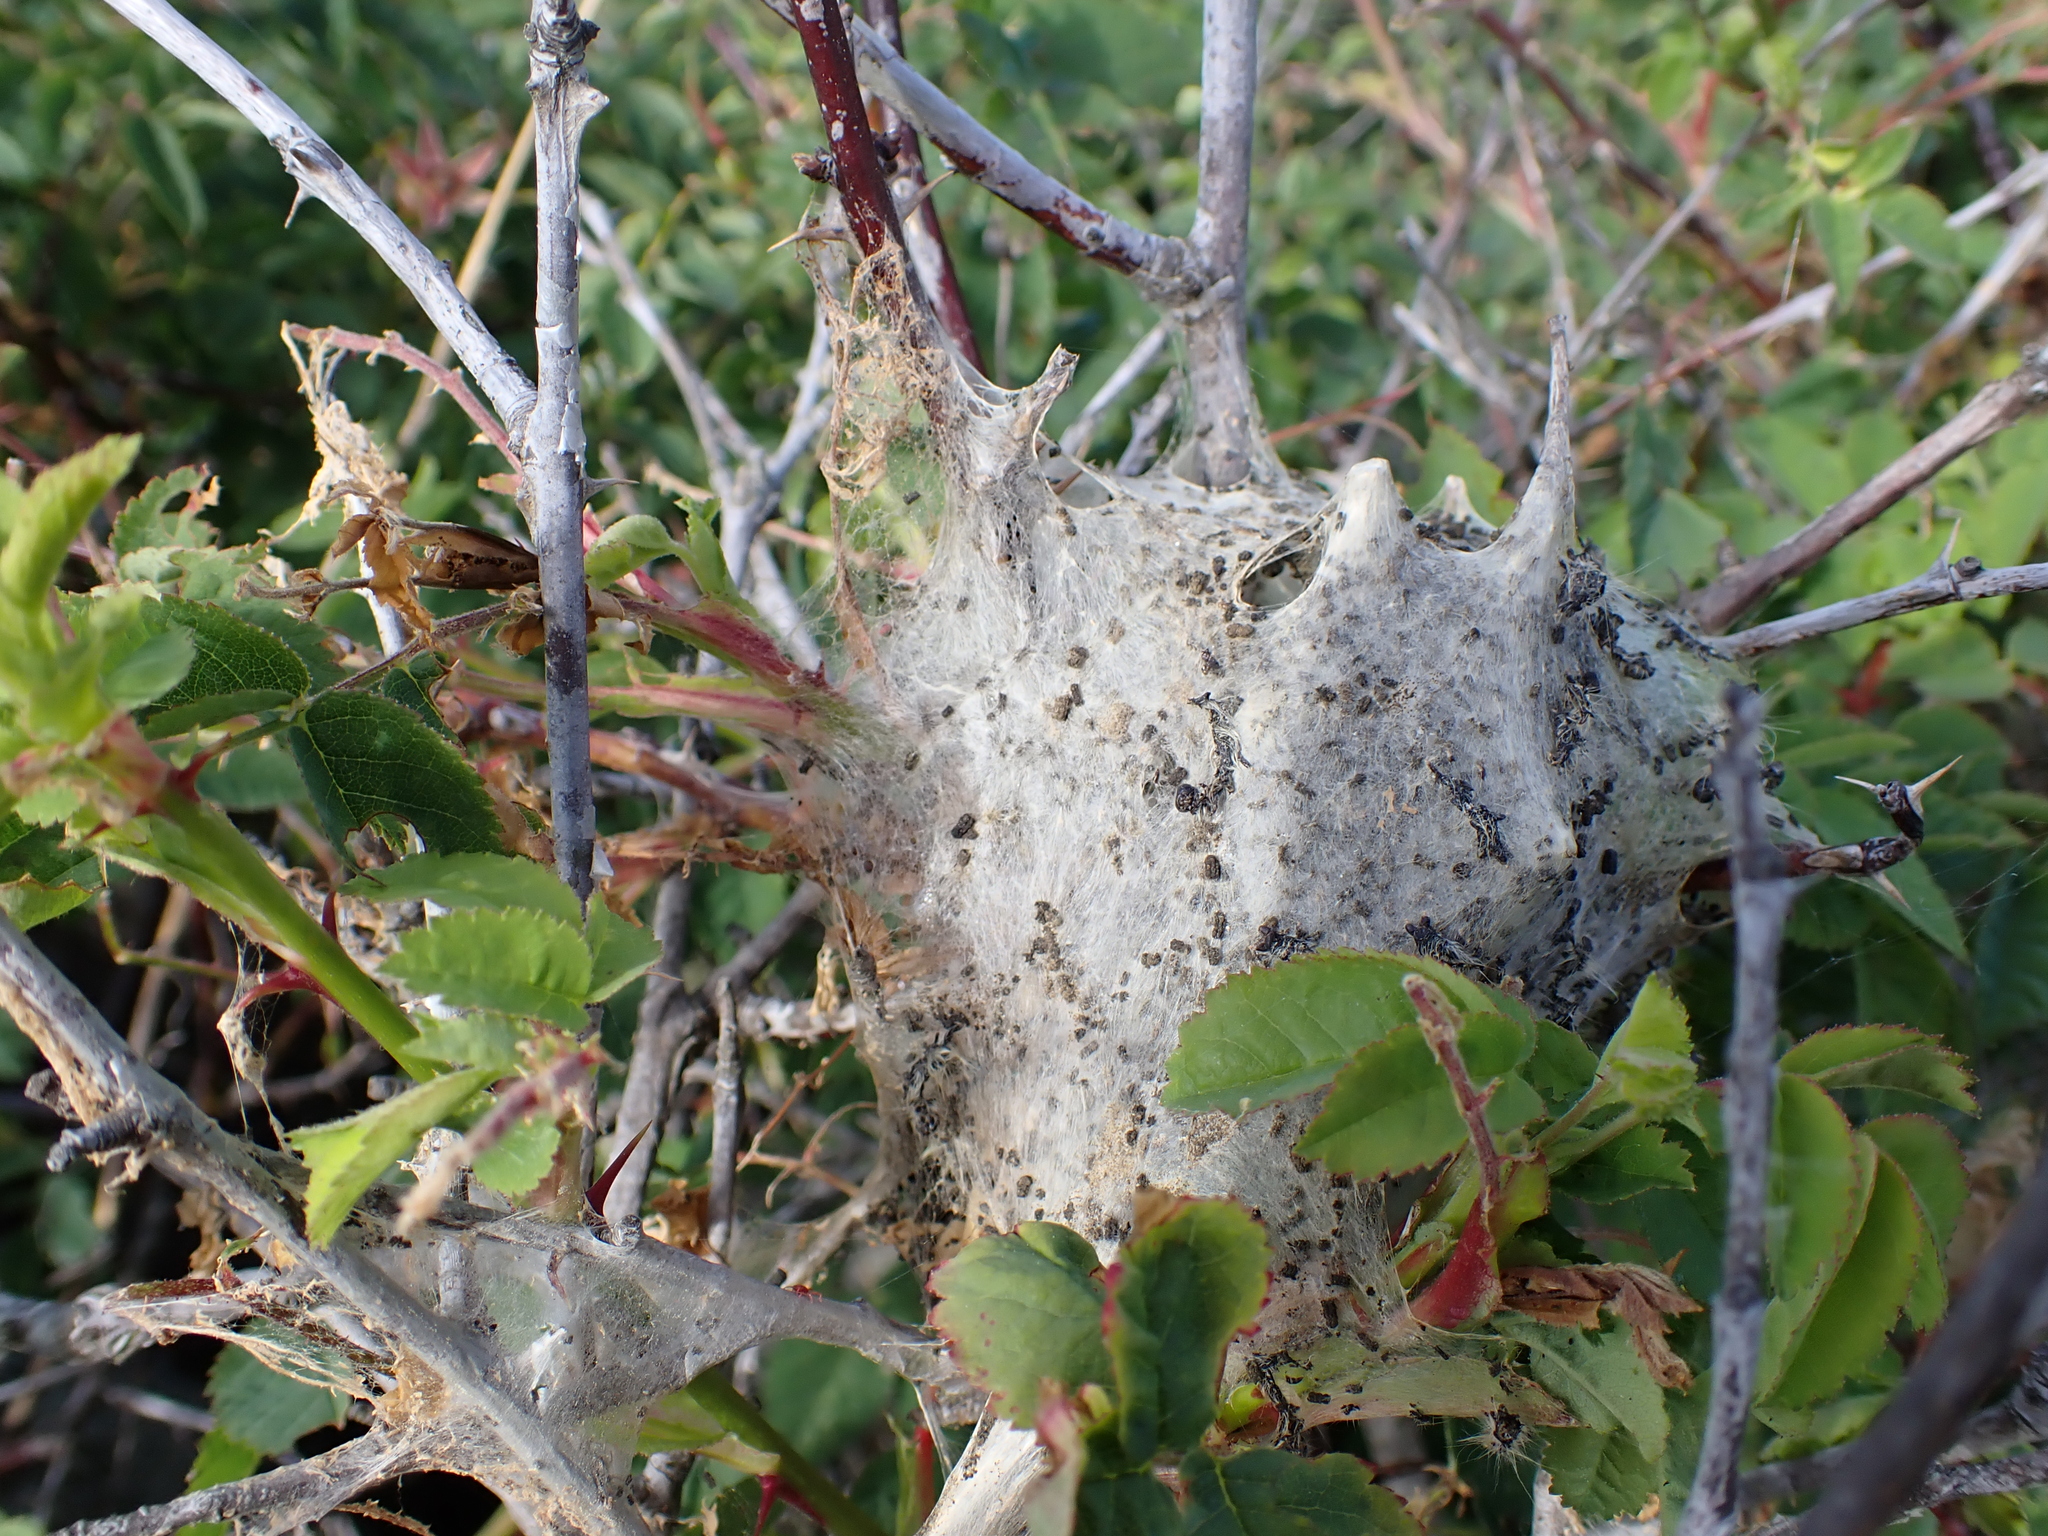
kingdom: Animalia
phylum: Arthropoda
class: Insecta
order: Lepidoptera
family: Lasiocampidae
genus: Malacosoma
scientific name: Malacosoma californica
